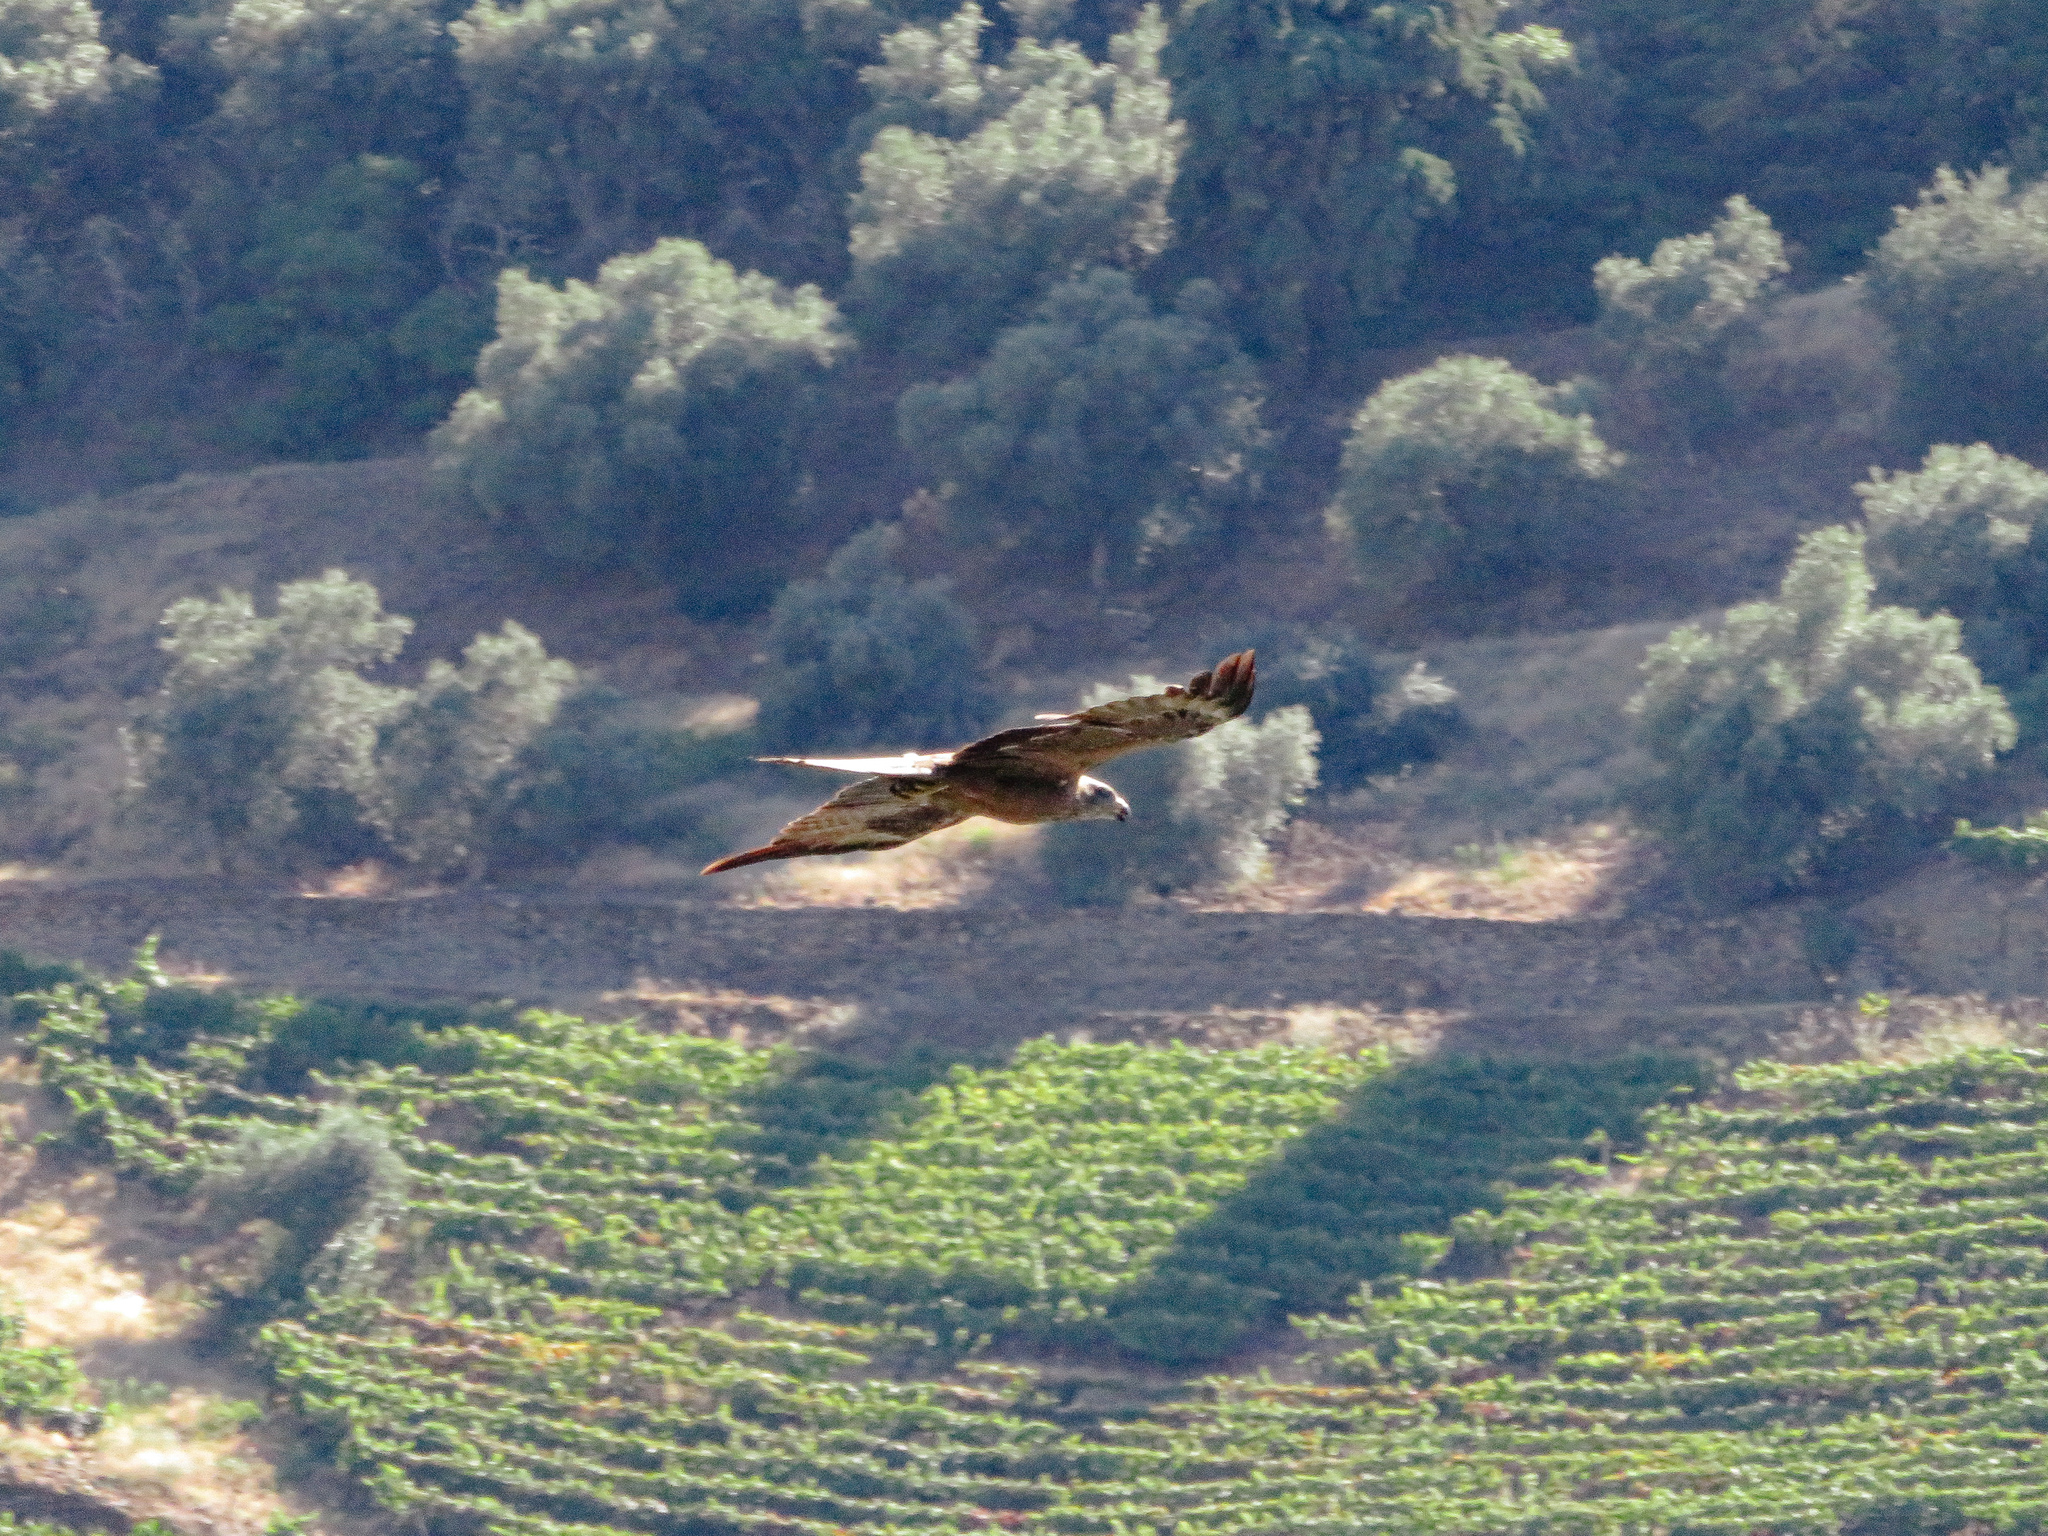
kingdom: Animalia
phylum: Chordata
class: Aves
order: Accipitriformes
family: Accipitridae
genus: Milvus
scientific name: Milvus migrans
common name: Black kite
